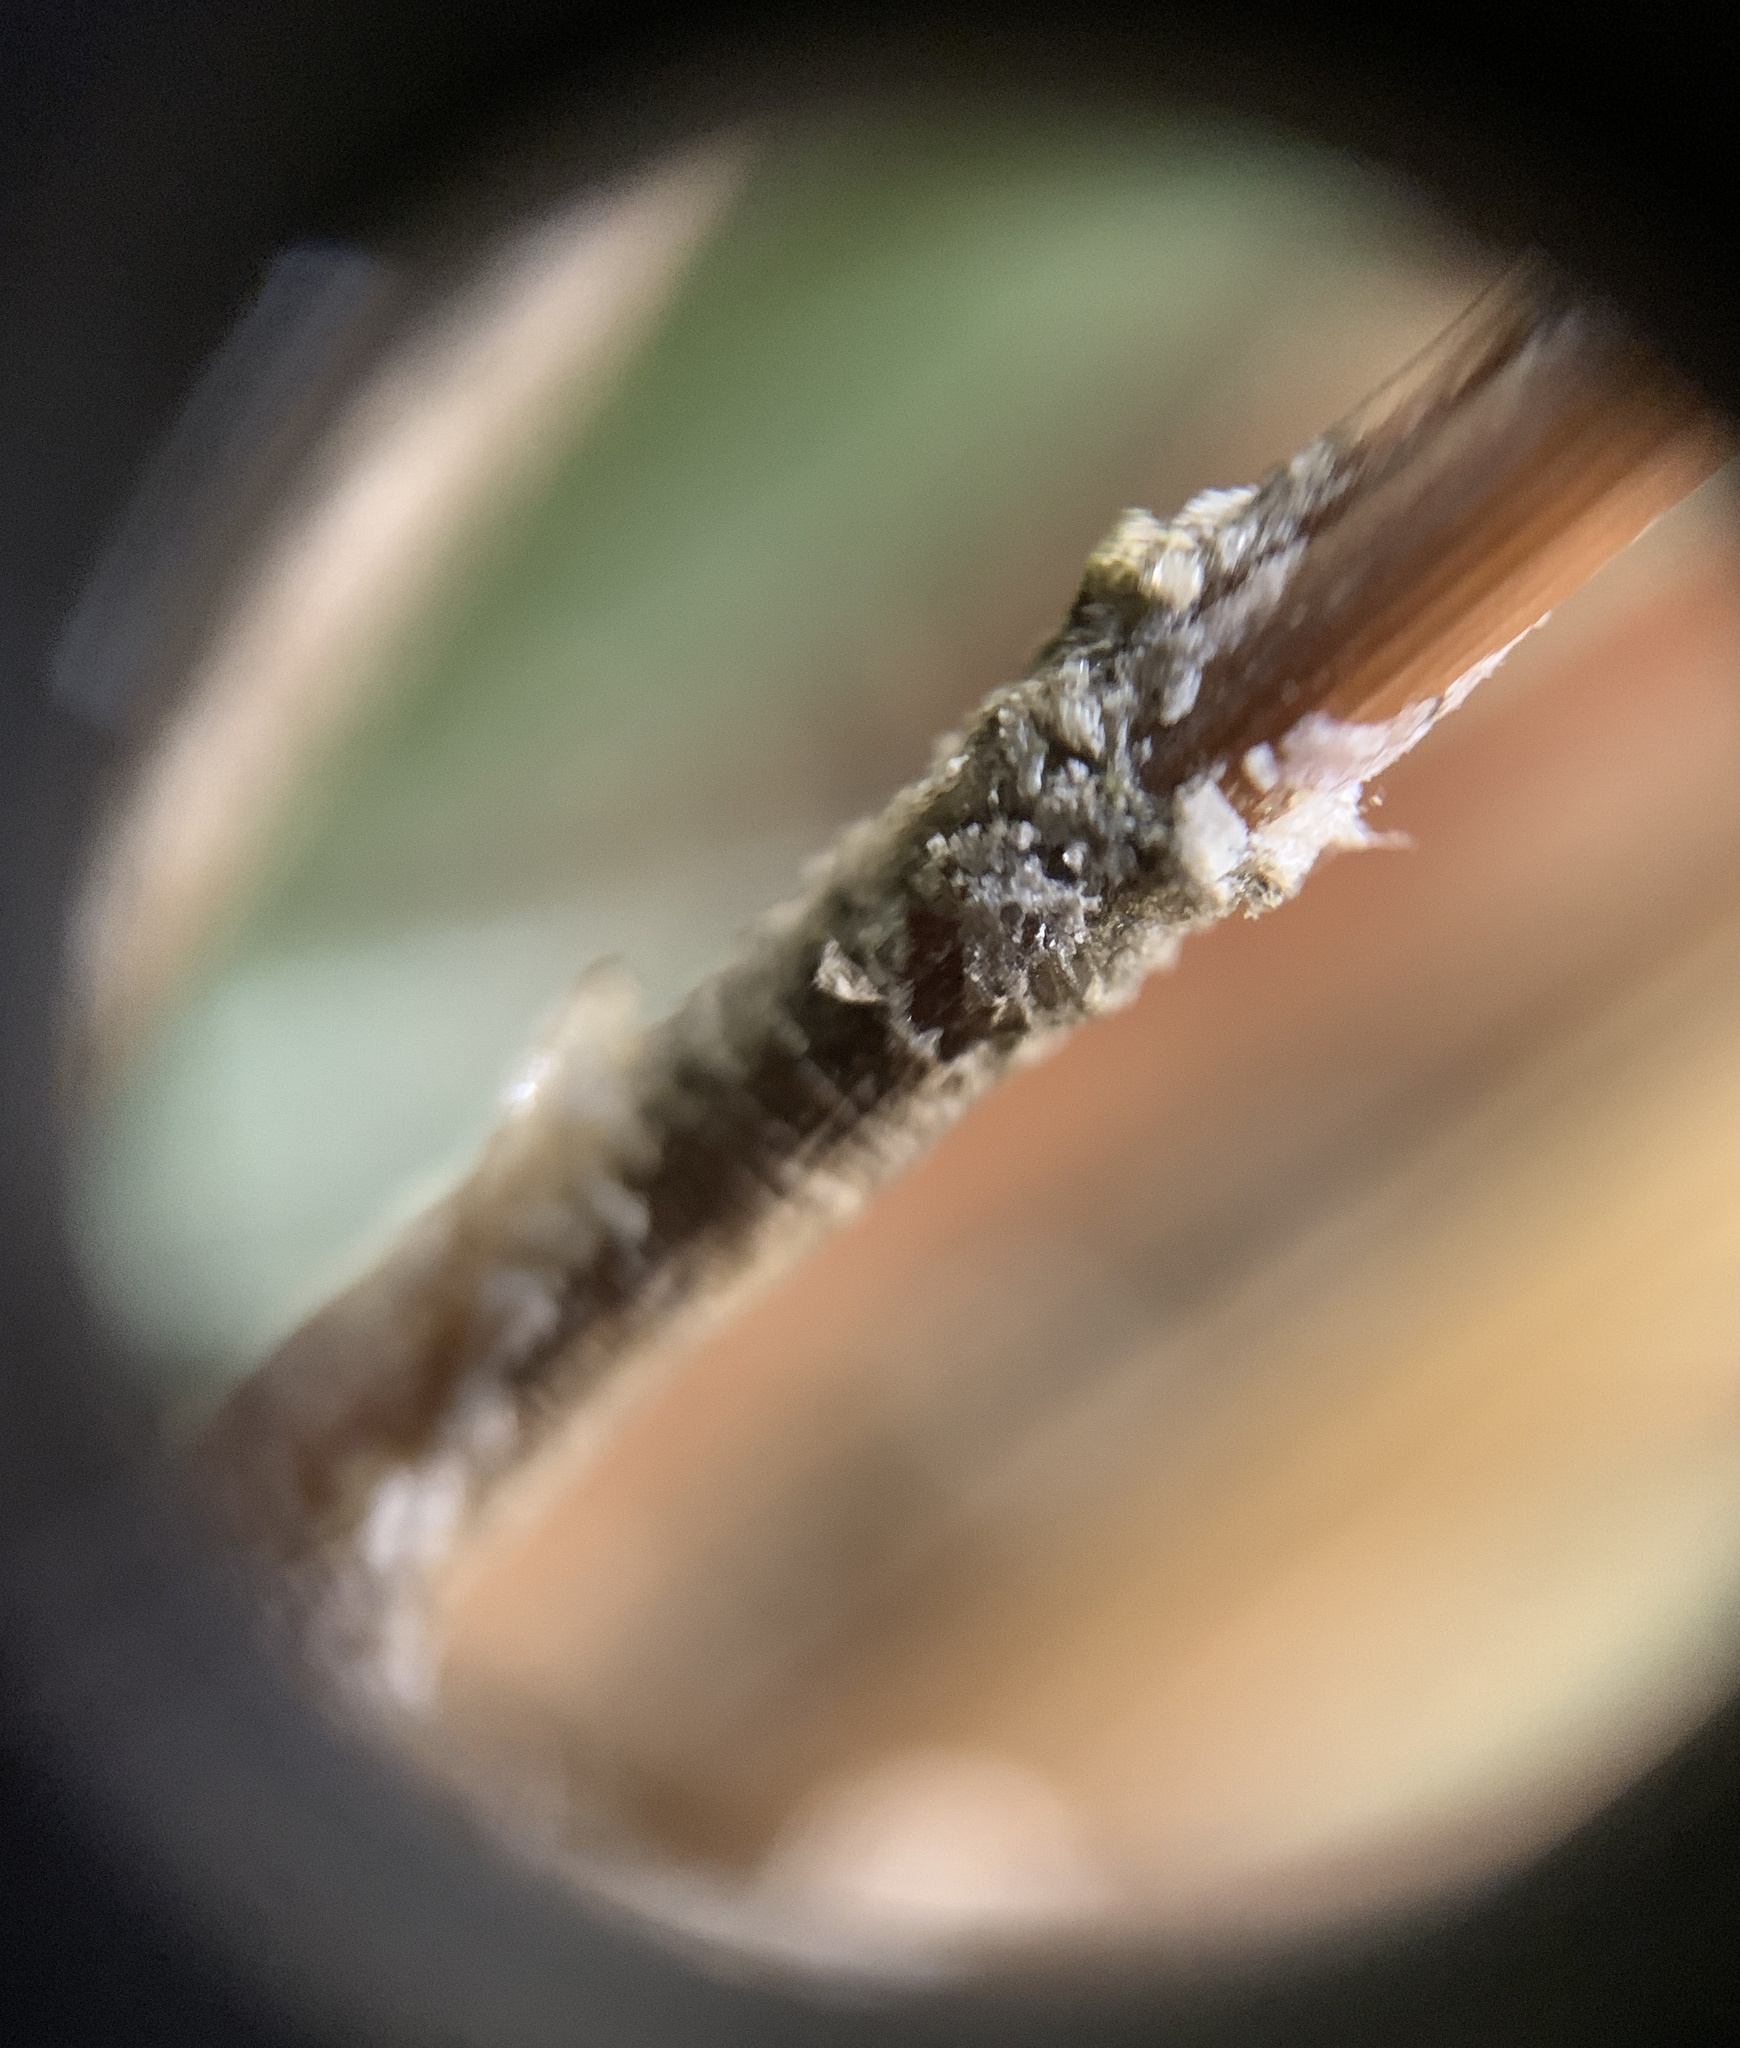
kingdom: Fungi
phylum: Ascomycota
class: Dothideomycetes
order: Botryosphaeriales
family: Botryosphaeriaceae
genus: Sphaeropsis
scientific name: Sphaeropsis sapinea
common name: Sphaeropsis blight
